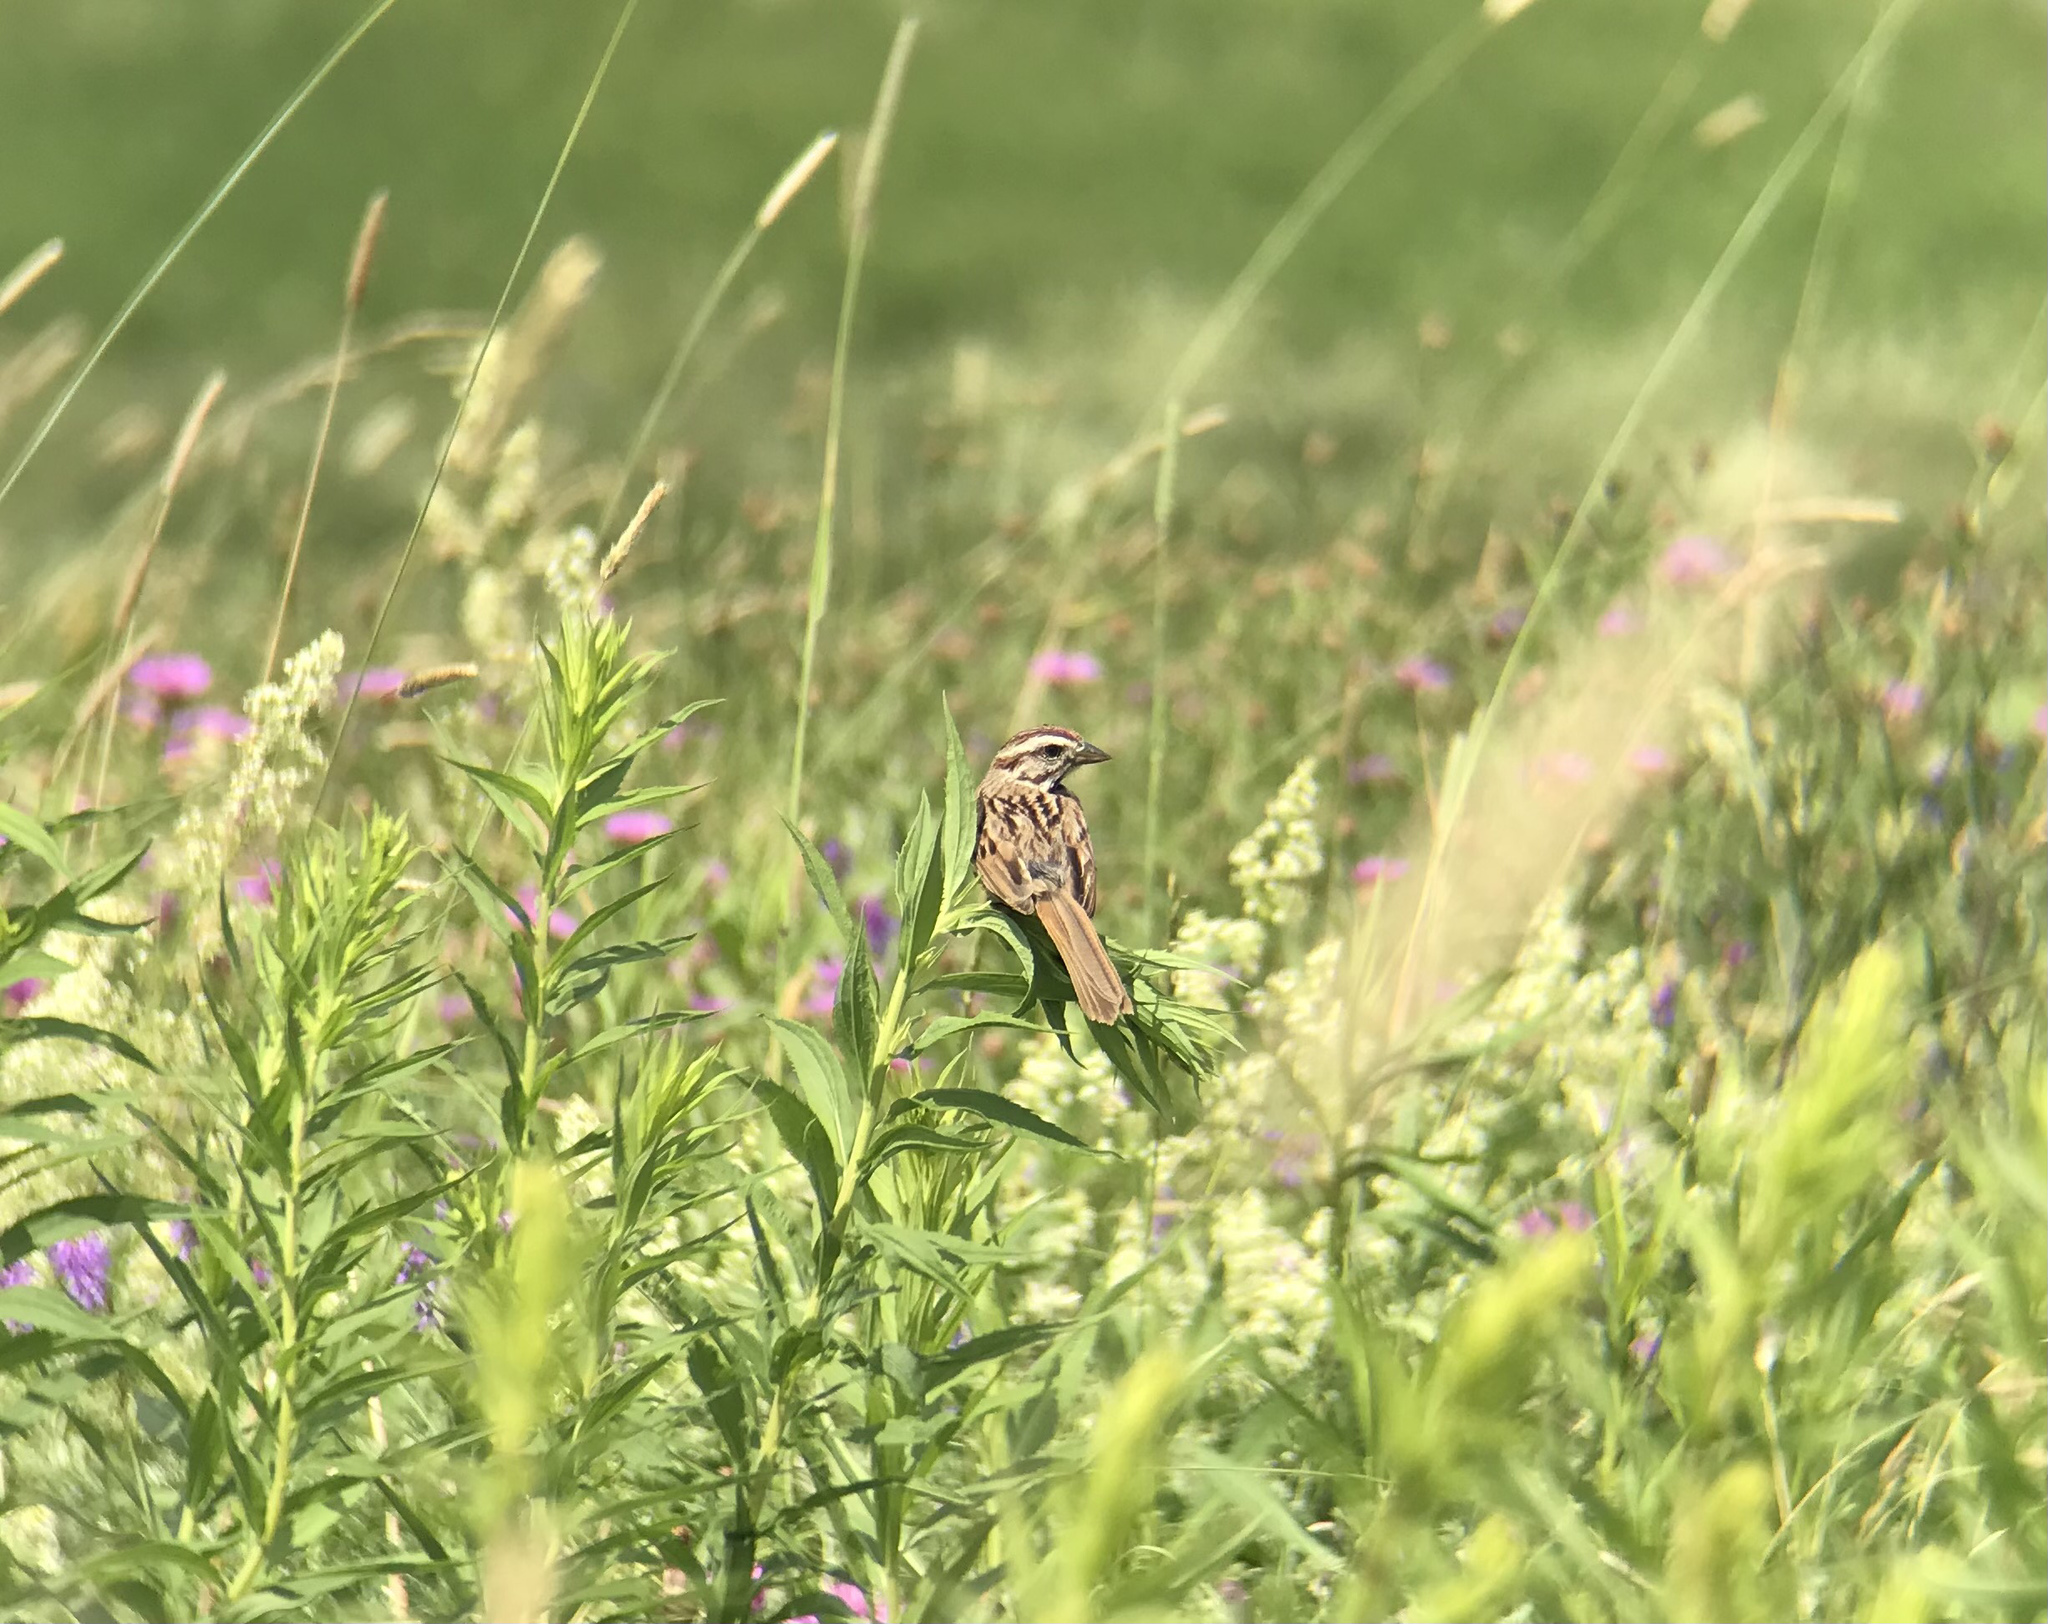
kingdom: Animalia
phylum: Chordata
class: Aves
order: Passeriformes
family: Passerellidae
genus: Melospiza
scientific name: Melospiza melodia
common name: Song sparrow
